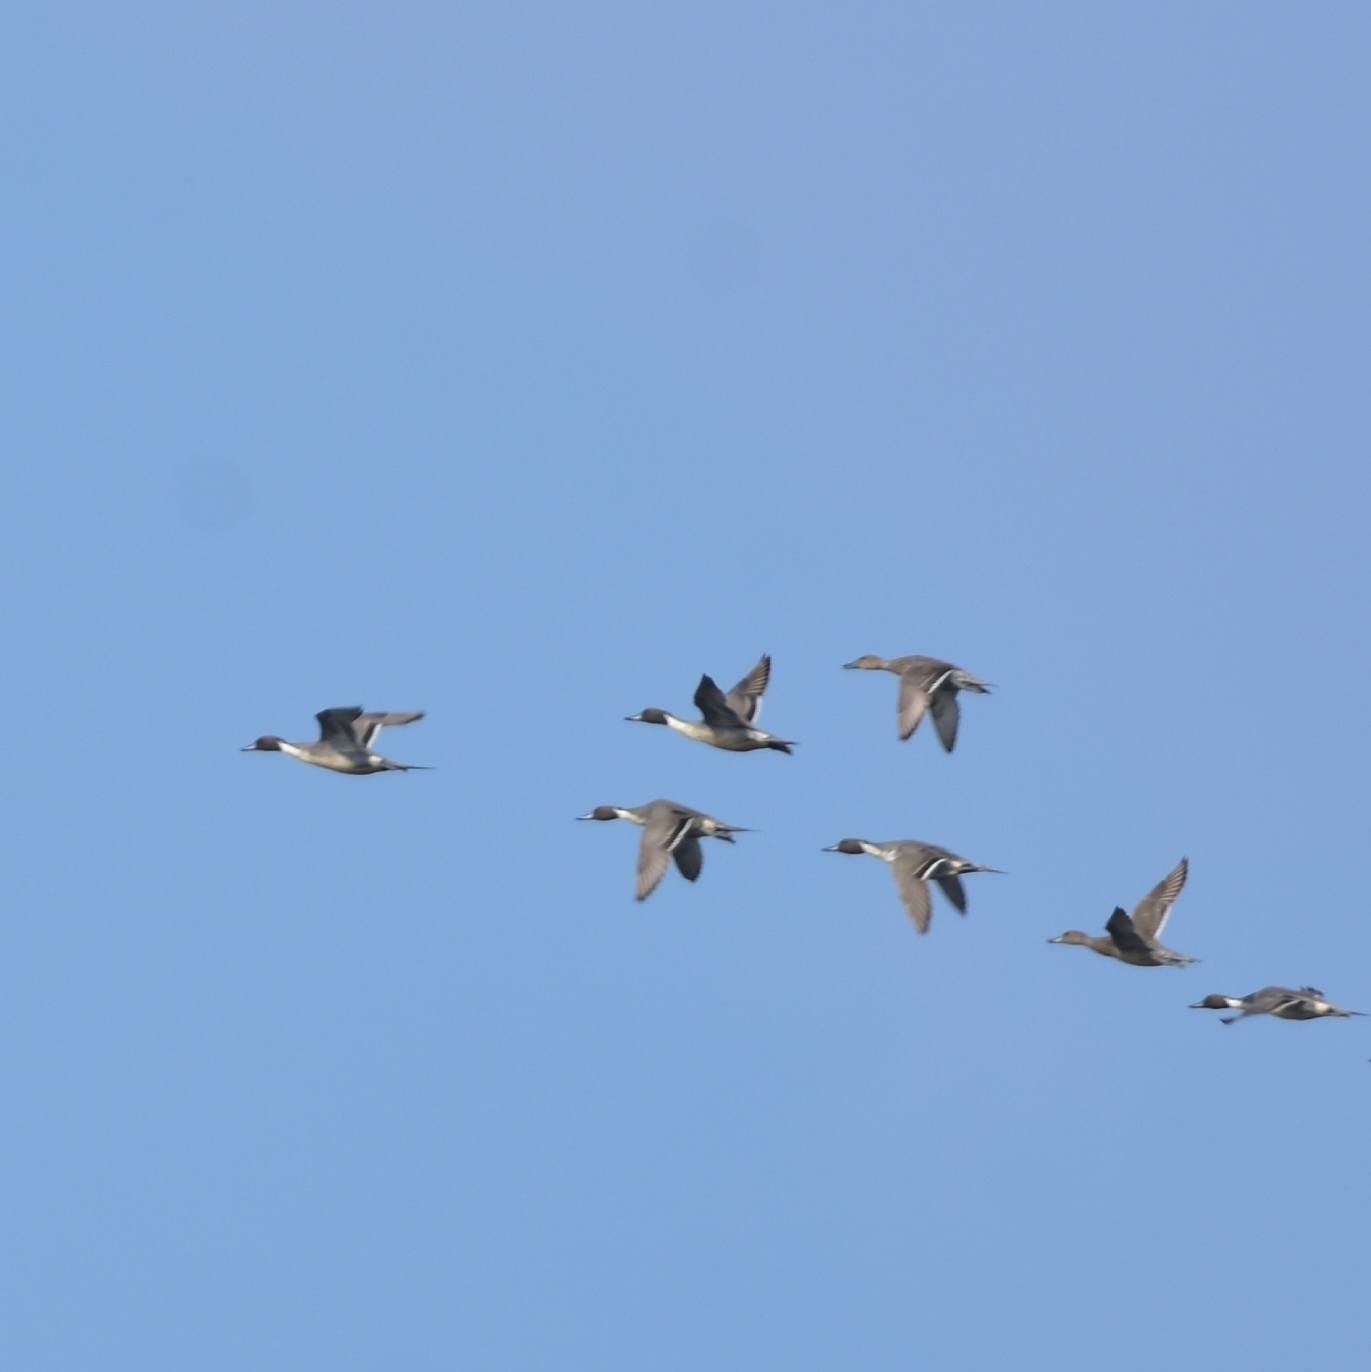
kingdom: Animalia
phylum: Chordata
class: Aves
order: Anseriformes
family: Anatidae
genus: Anas
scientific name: Anas acuta
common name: Northern pintail
